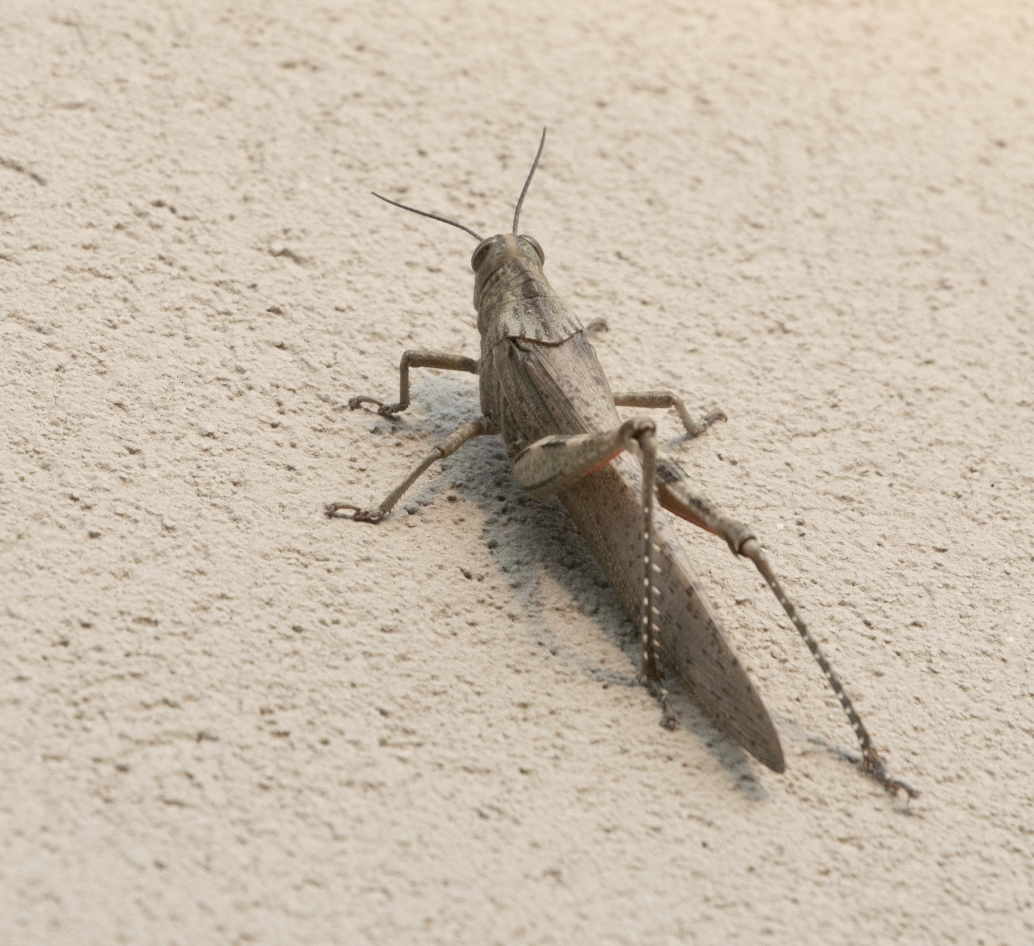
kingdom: Animalia
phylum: Arthropoda
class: Insecta
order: Orthoptera
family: Acrididae
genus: Anacridium
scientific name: Anacridium aegyptium
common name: Egyptian grasshopper
